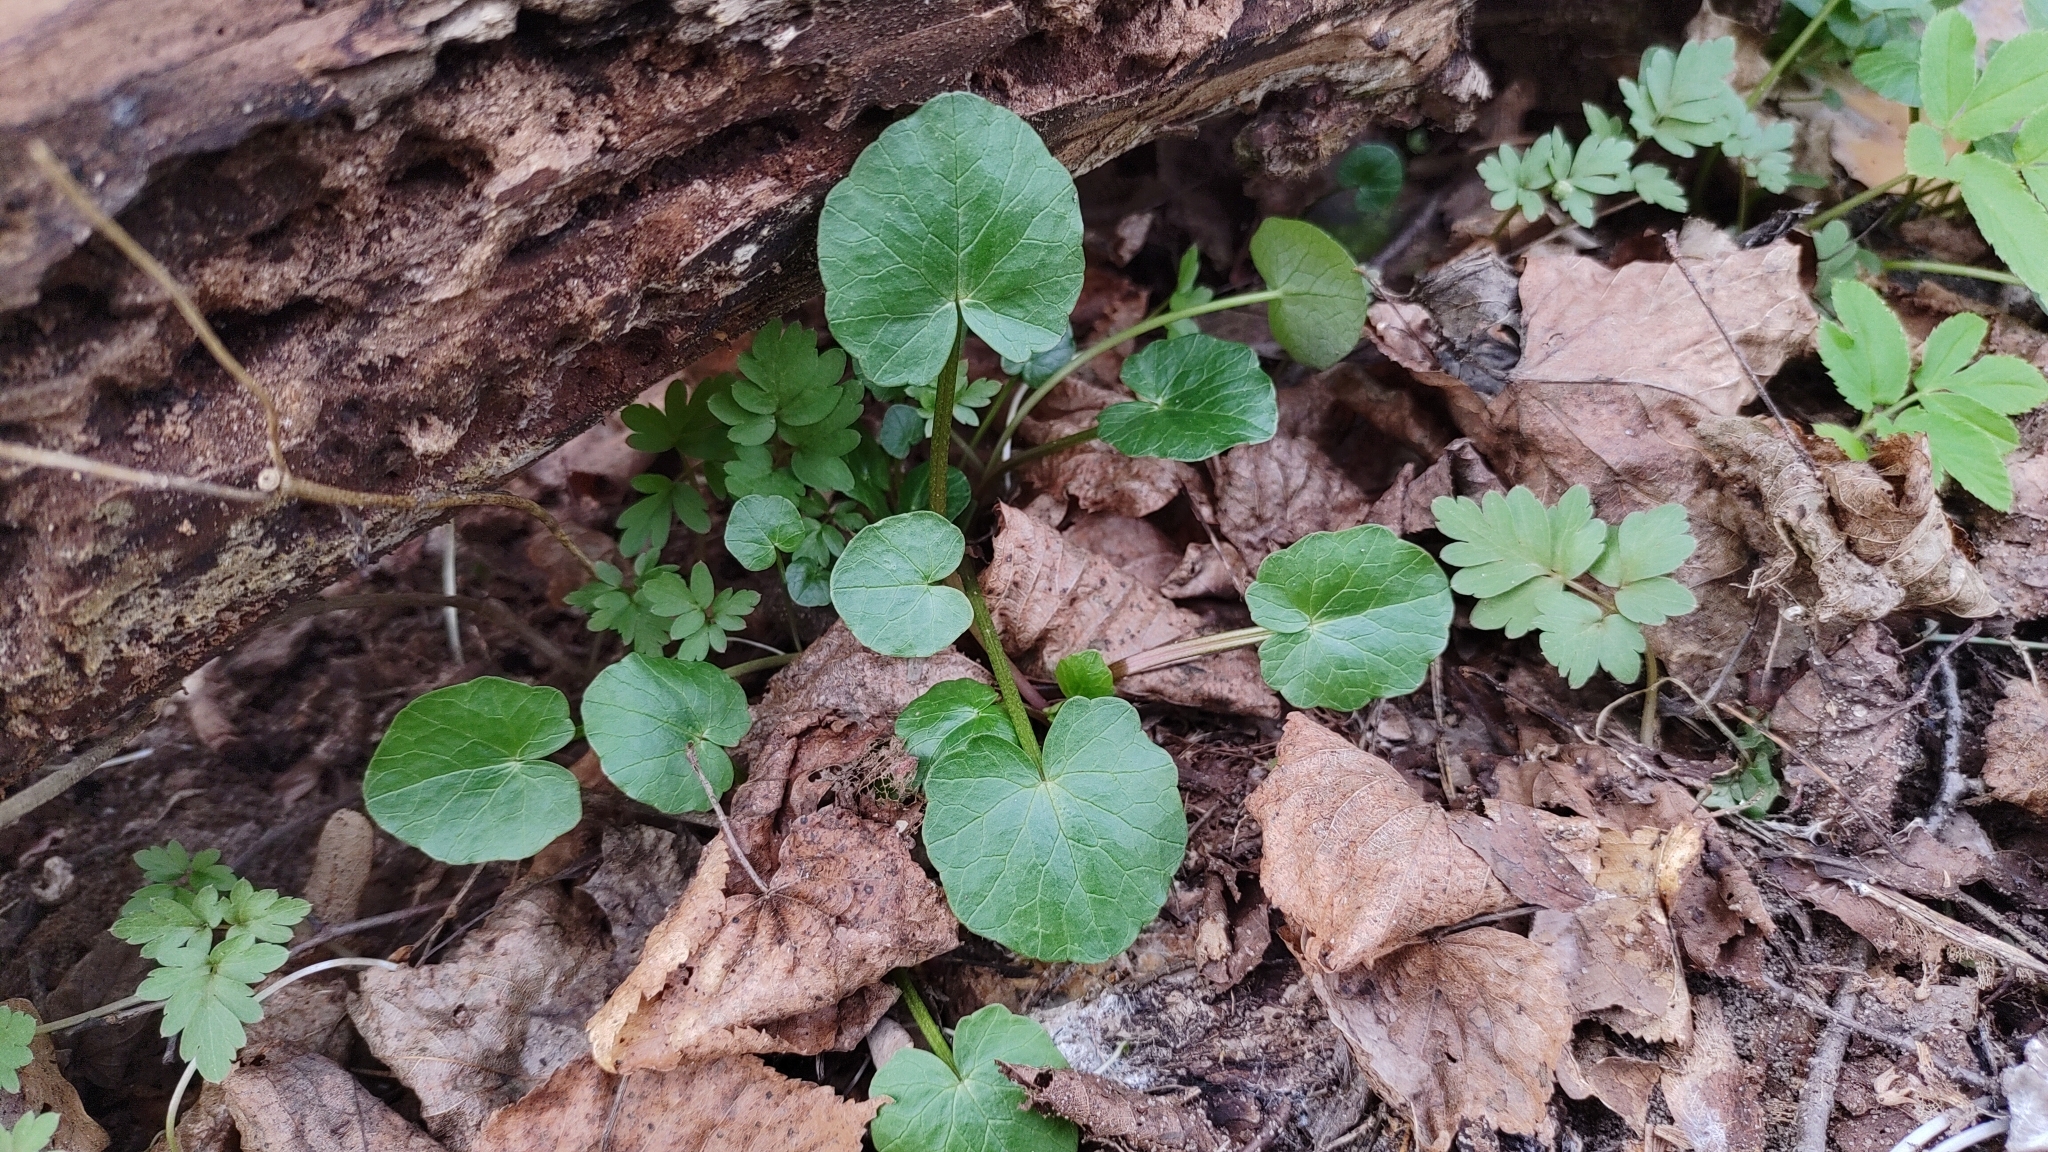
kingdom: Plantae
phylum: Tracheophyta
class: Magnoliopsida
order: Ranunculales
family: Ranunculaceae
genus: Ficaria
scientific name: Ficaria verna
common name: Lesser celandine
